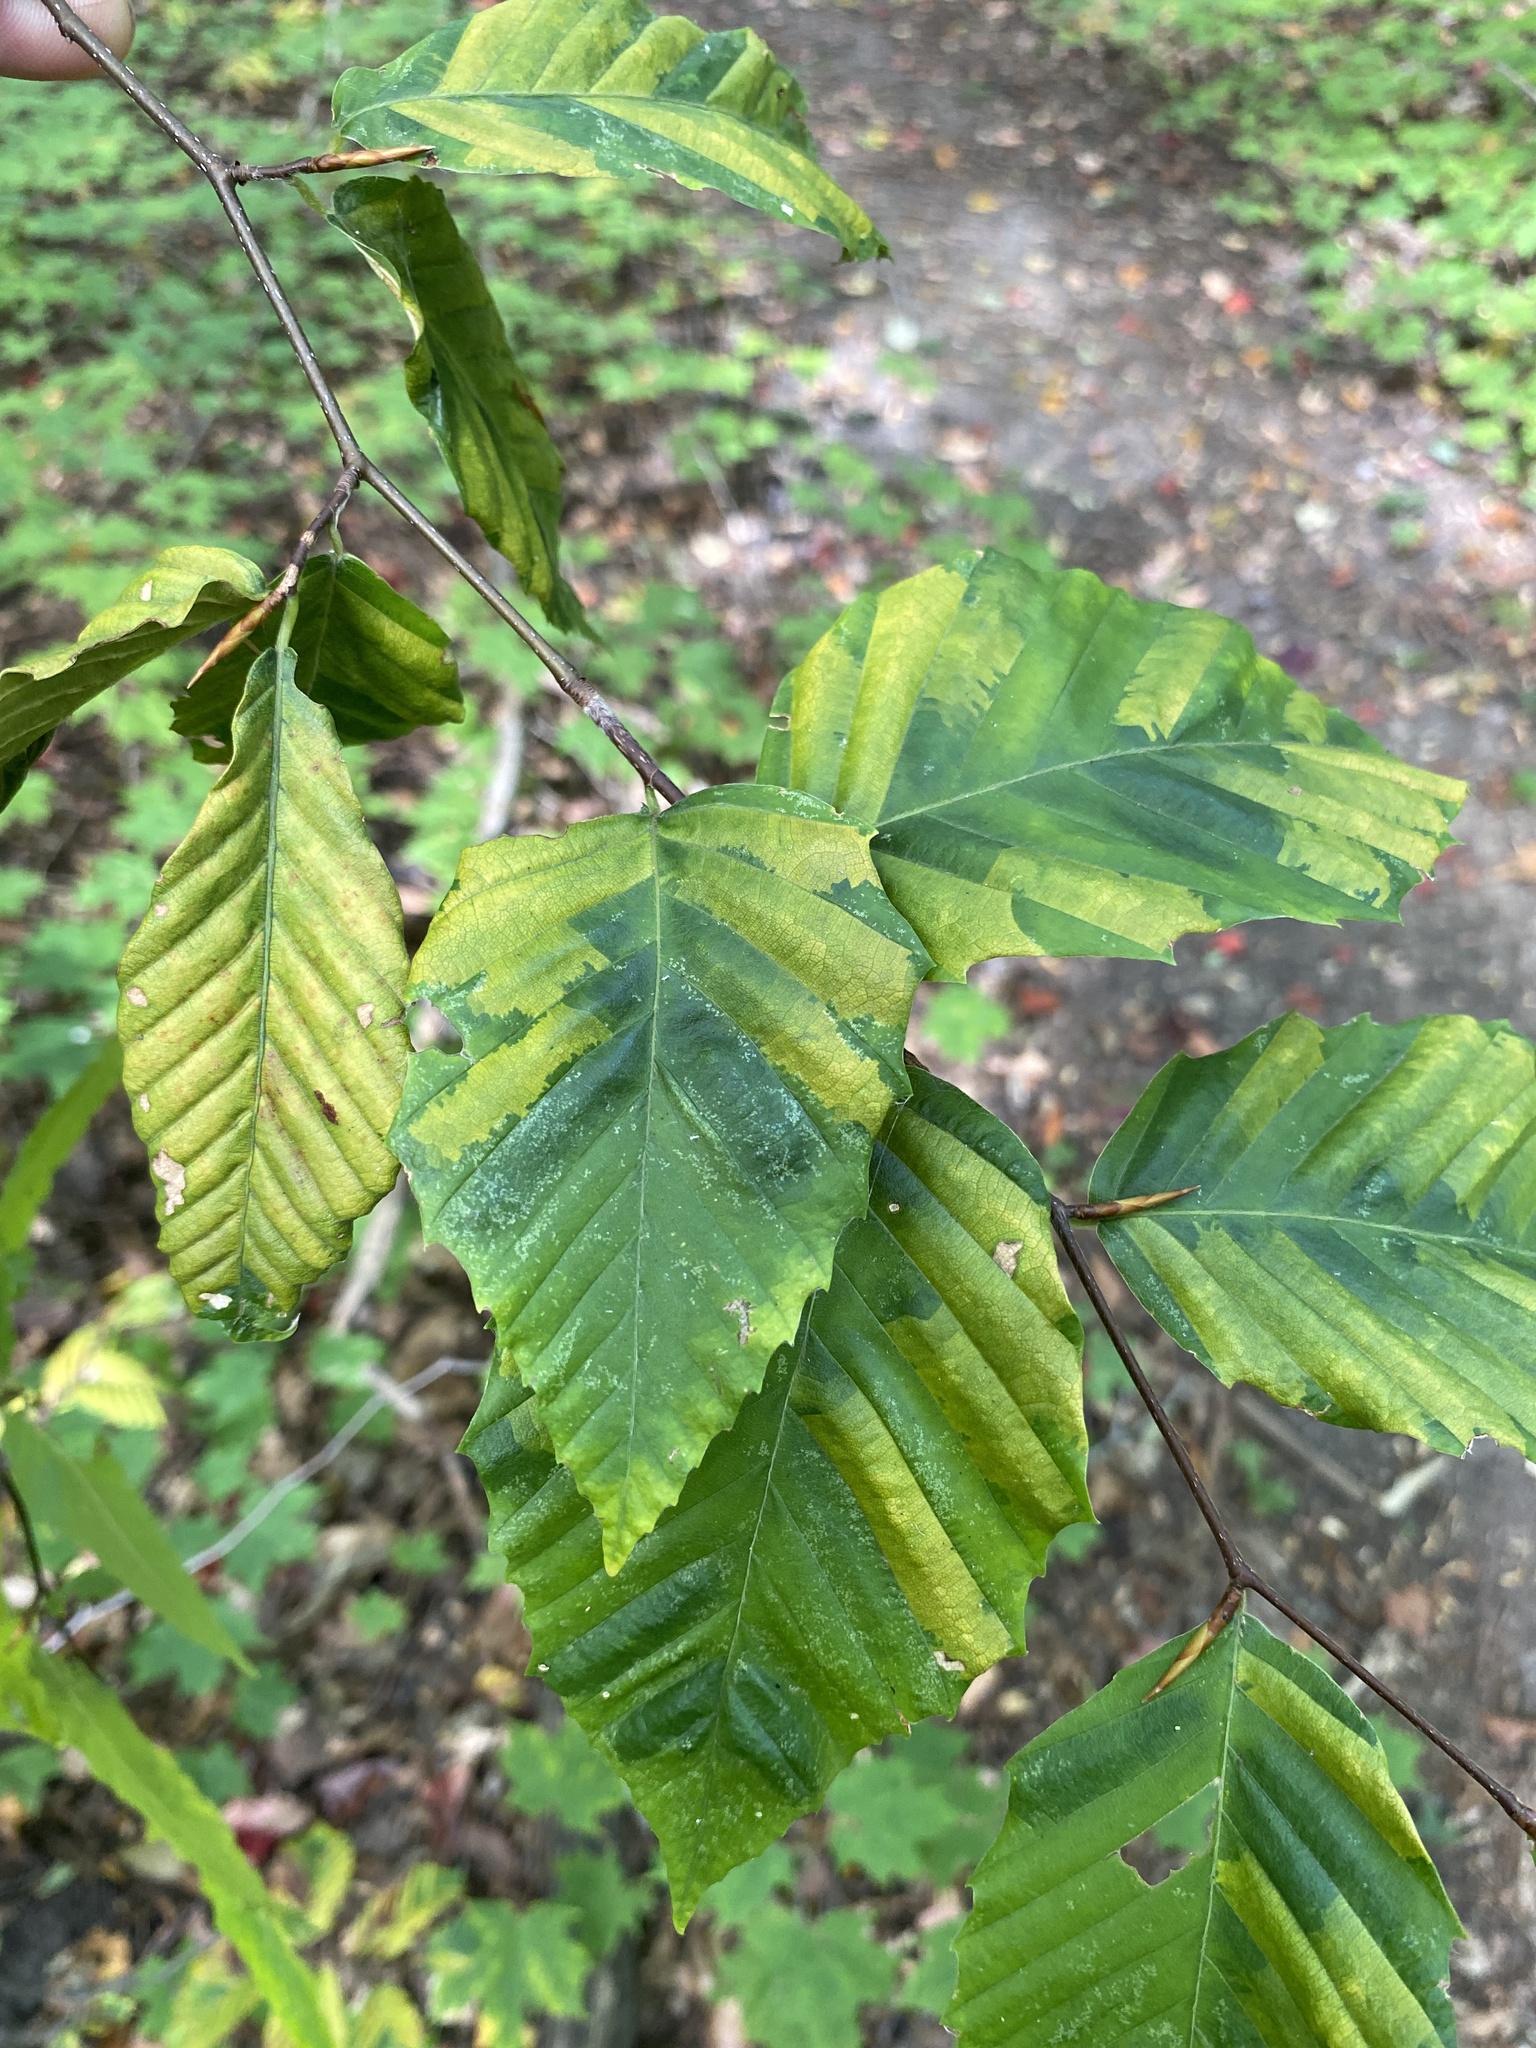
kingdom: Animalia
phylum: Nematoda
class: Chromadorea
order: Rhabditida
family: Anguinidae
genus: Litylenchus
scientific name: Litylenchus crenatae
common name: Beech leaf disease
